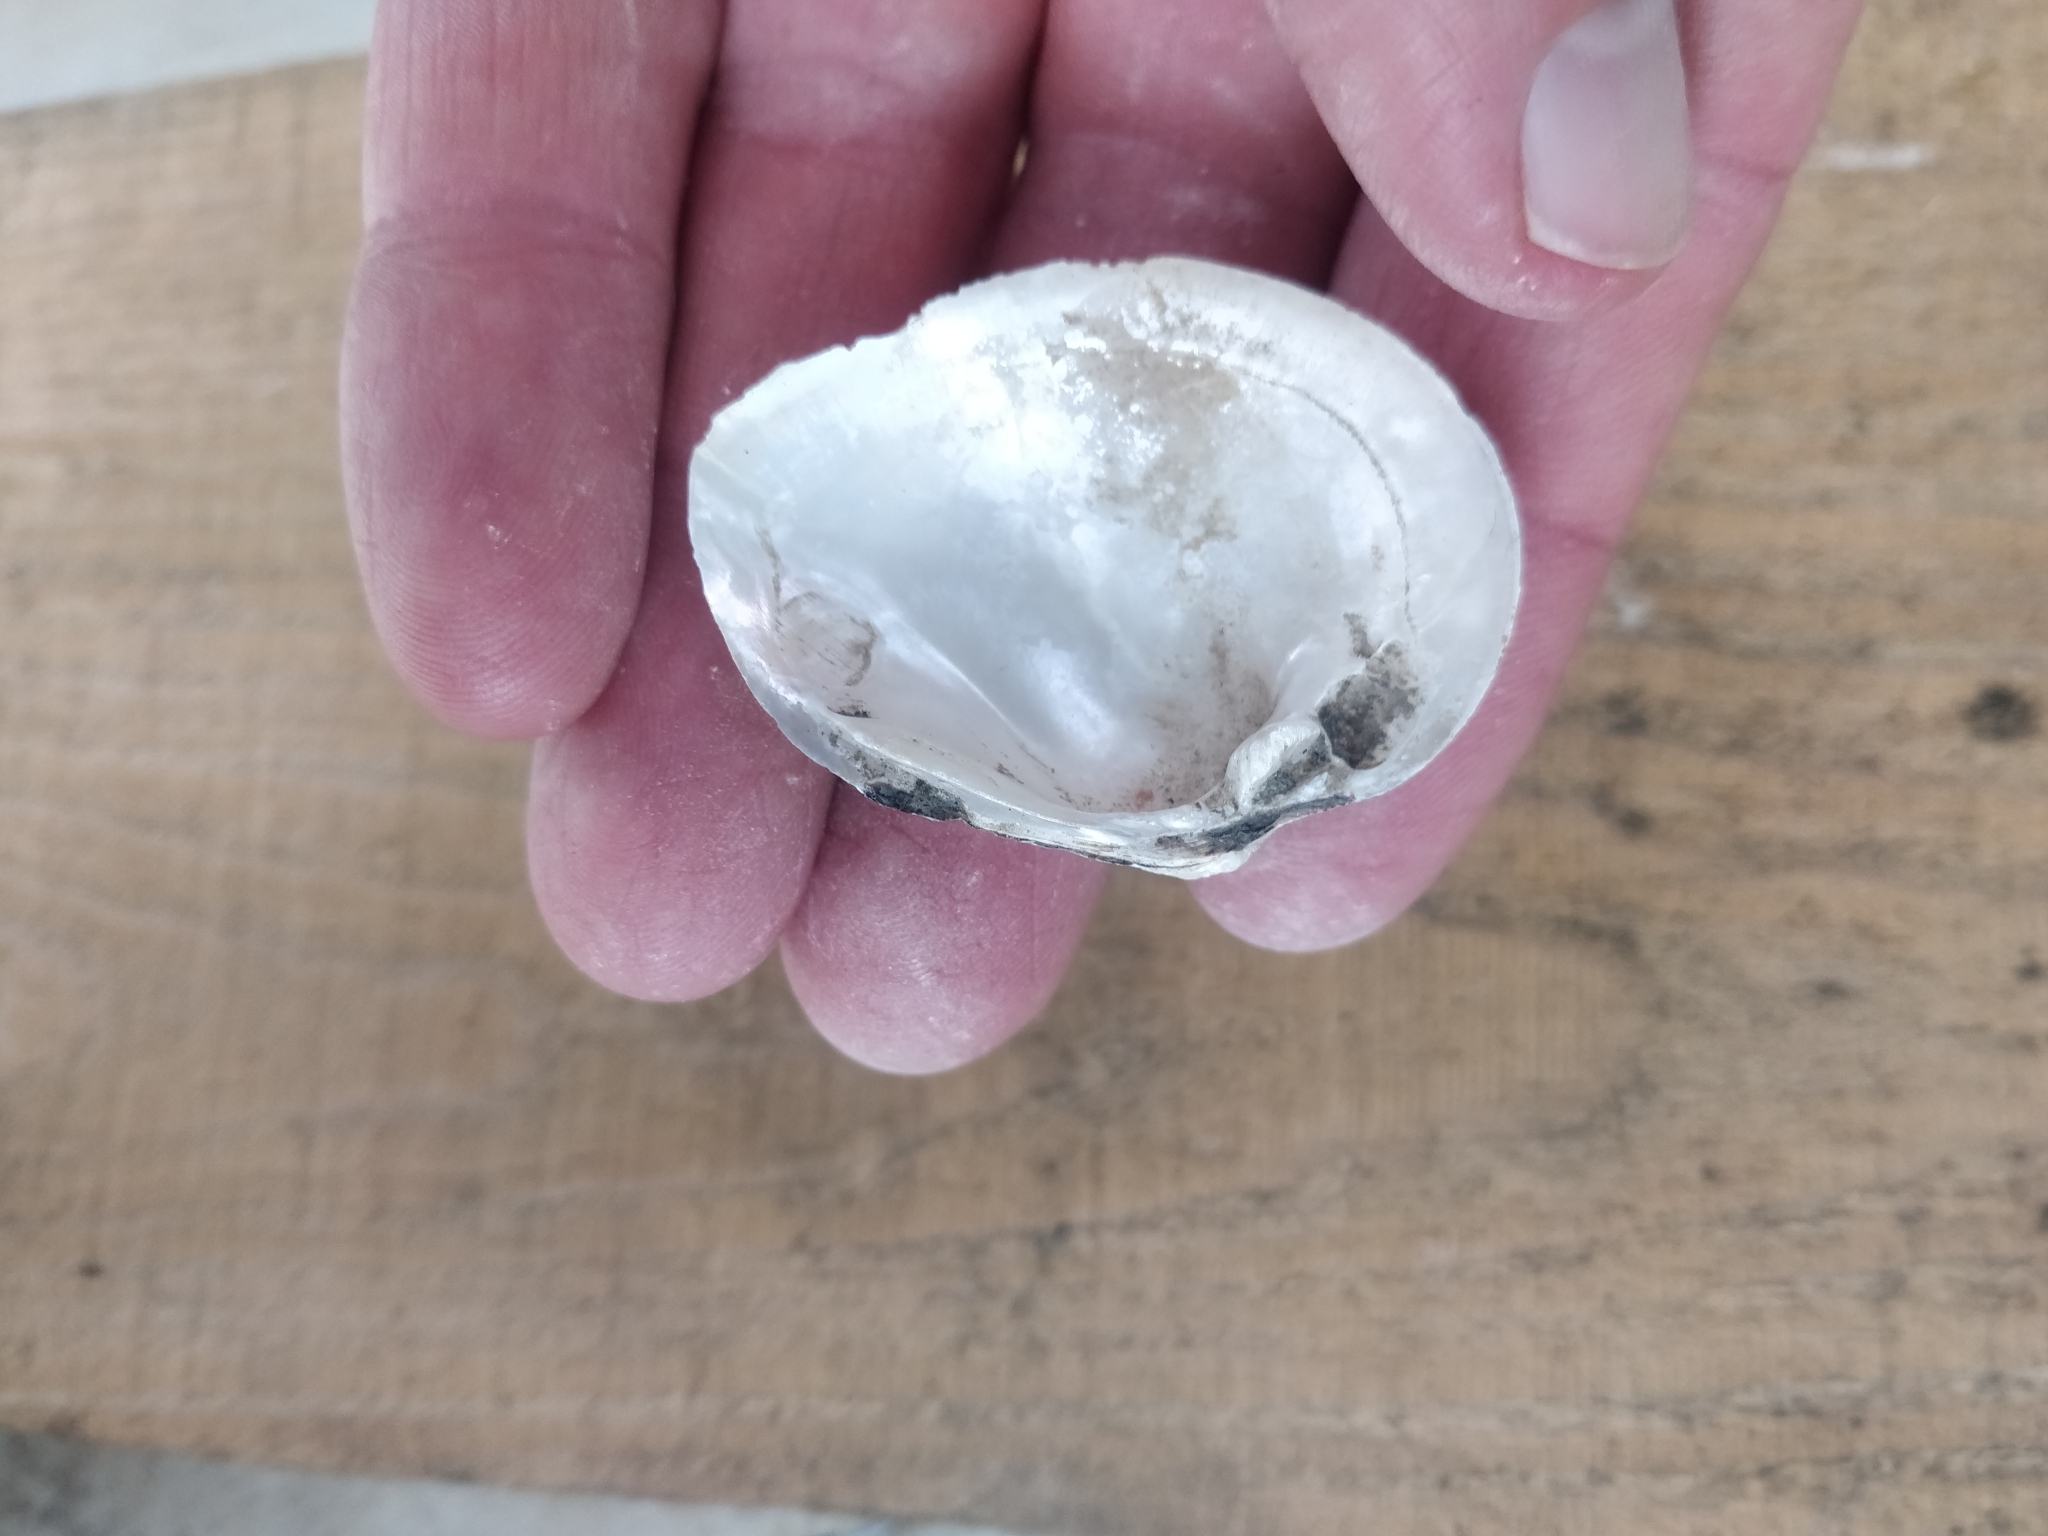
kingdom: Animalia
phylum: Mollusca
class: Bivalvia
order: Unionida
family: Unionidae
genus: Fusconaia
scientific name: Fusconaia flava
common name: Wabash pigtoe
